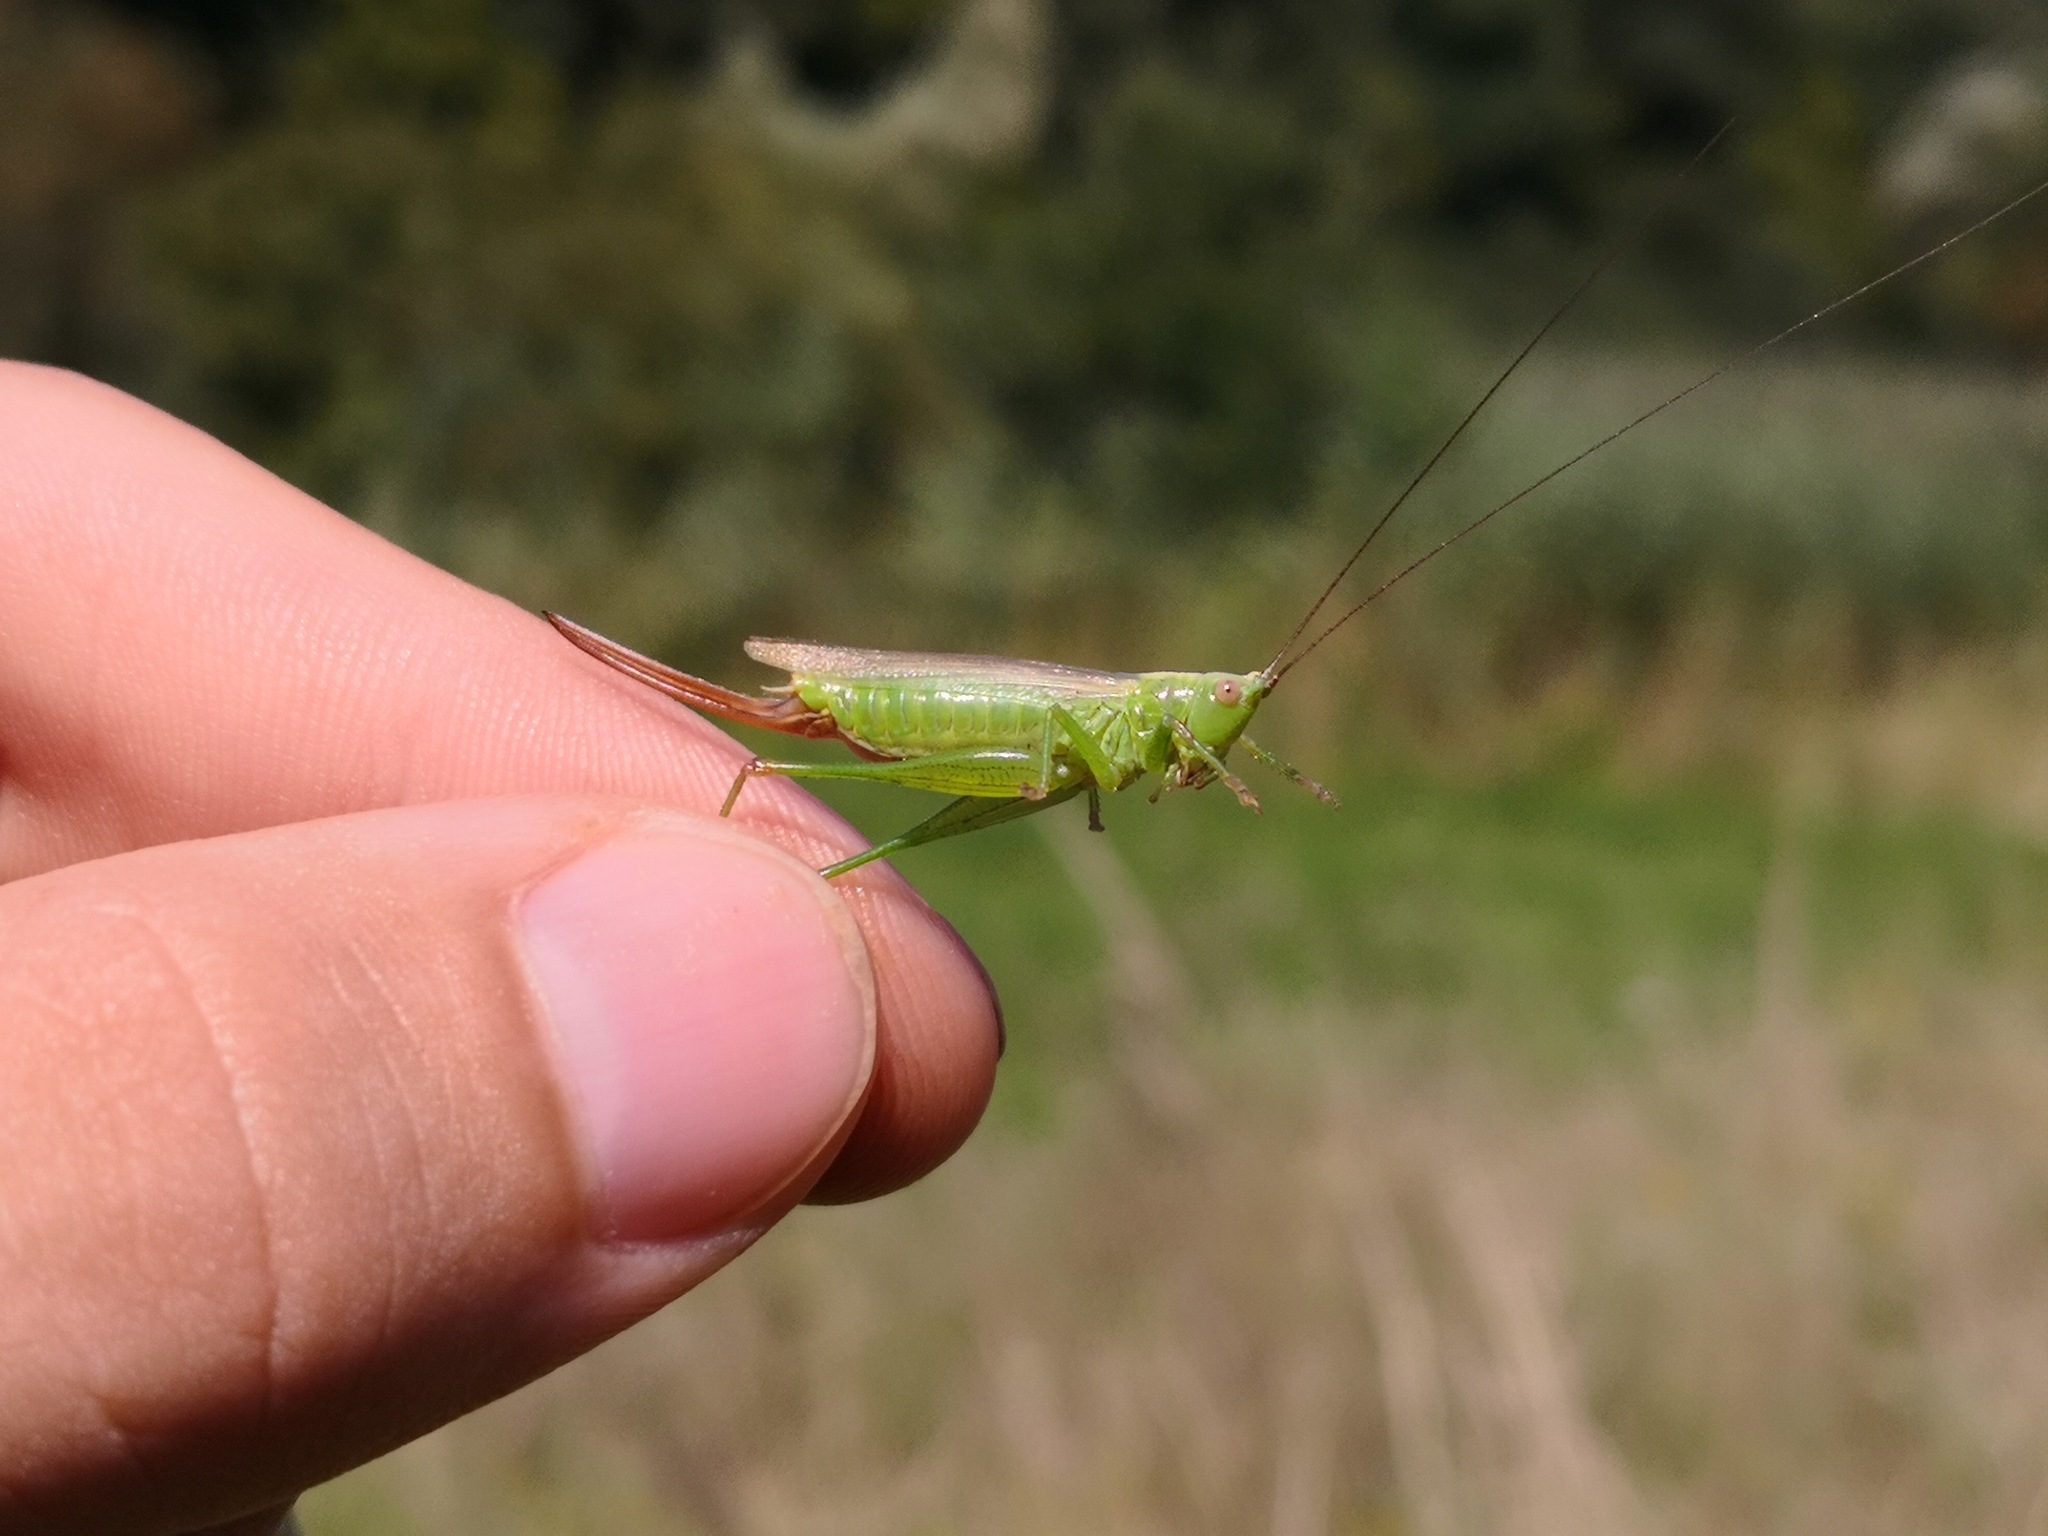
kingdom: Animalia
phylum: Arthropoda
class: Insecta
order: Orthoptera
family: Tettigoniidae
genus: Conocephalus
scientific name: Conocephalus fuscus
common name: Long-winged conehead
